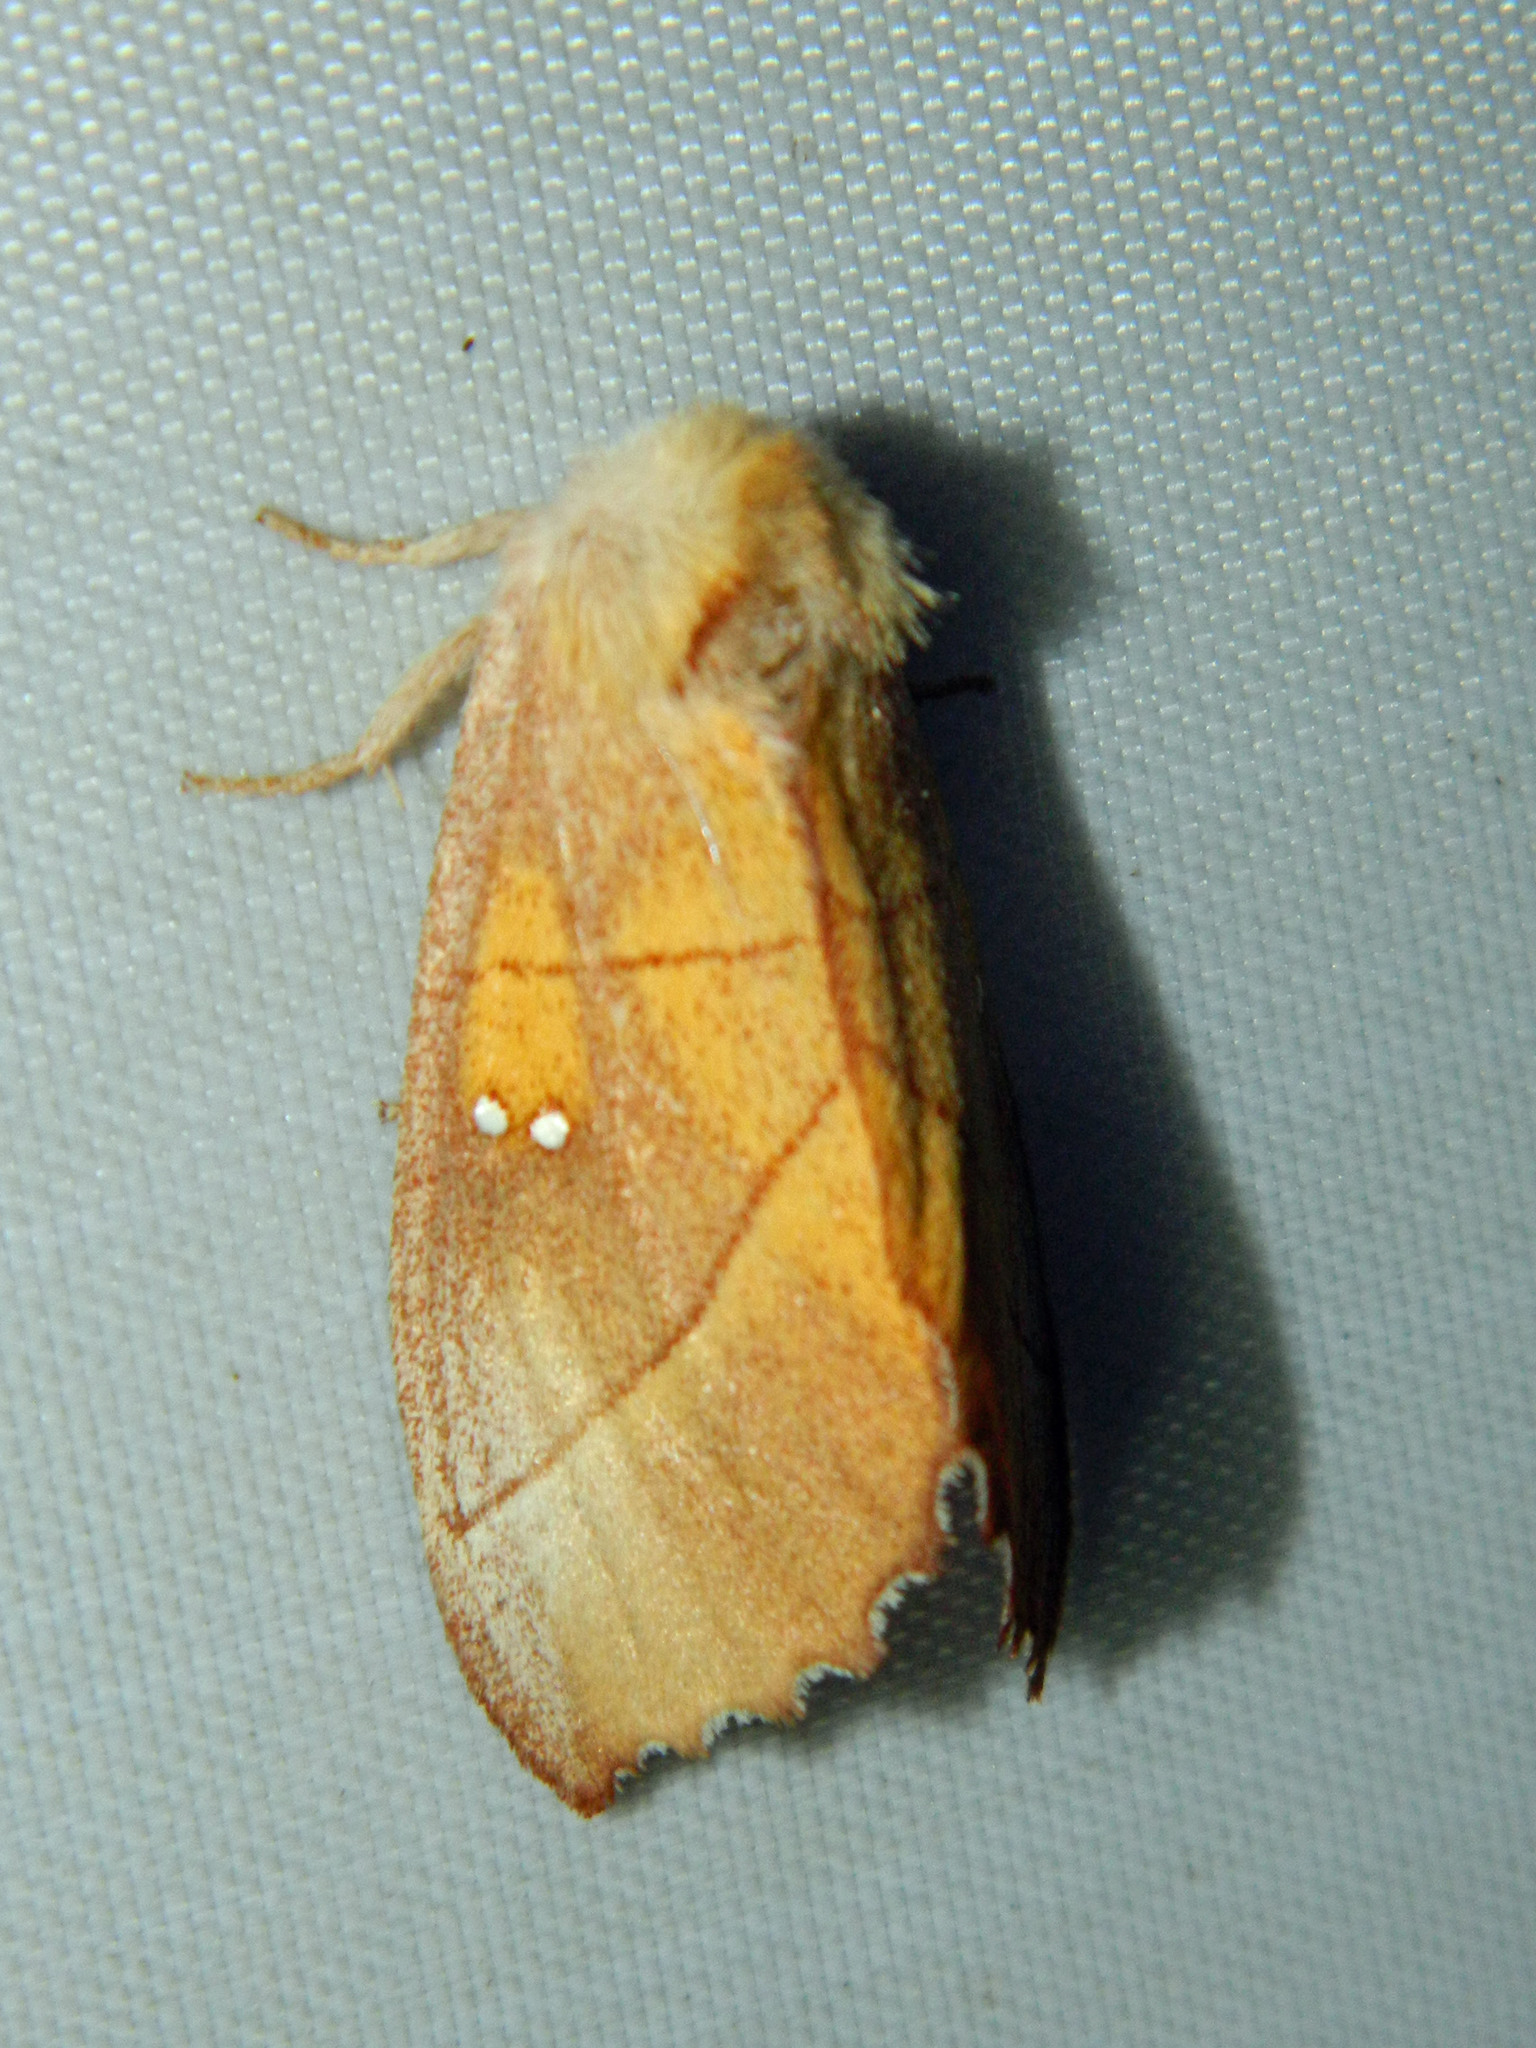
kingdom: Animalia
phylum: Arthropoda
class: Insecta
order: Lepidoptera
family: Notodontidae
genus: Nadata
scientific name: Nadata gibbosa
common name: White-dotted prominent
